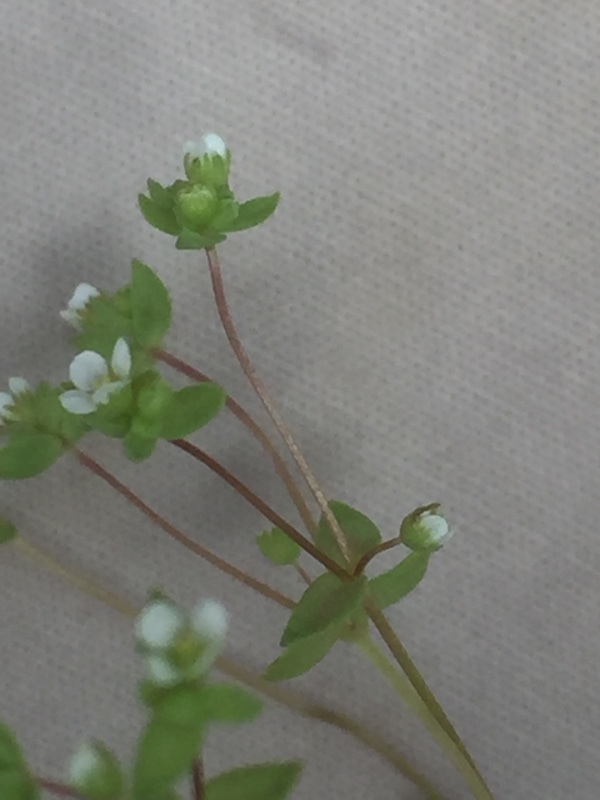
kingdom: Plantae
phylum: Tracheophyta
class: Magnoliopsida
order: Malpighiales
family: Linaceae
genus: Radiola
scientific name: Radiola linoides
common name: Allseed
